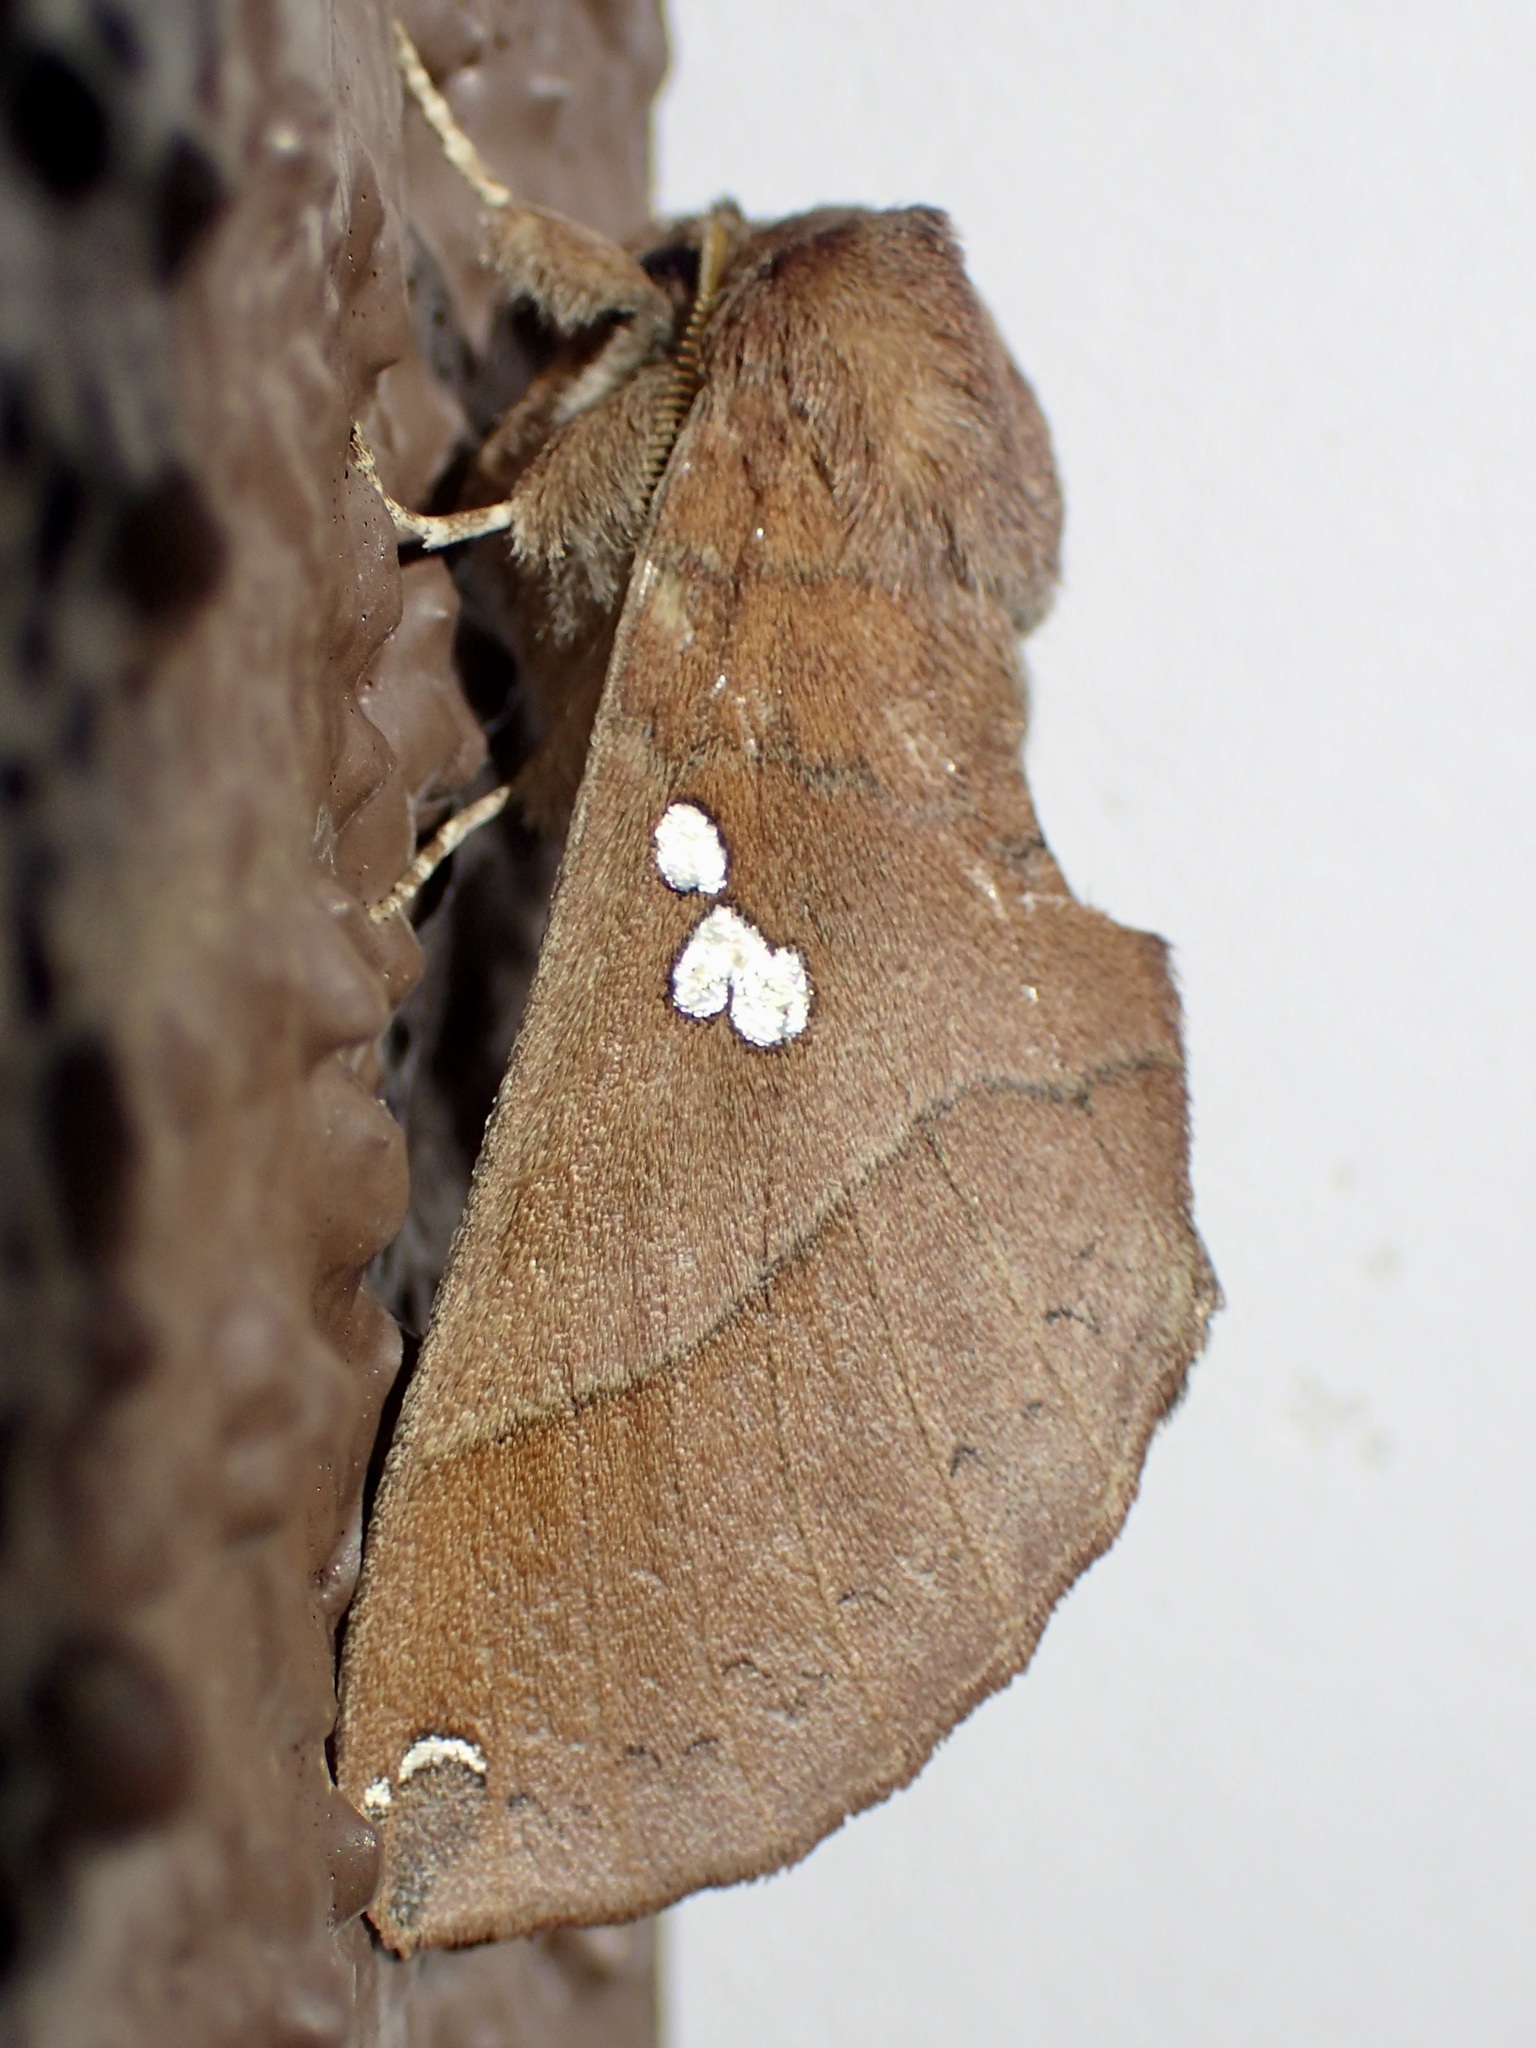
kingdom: Animalia
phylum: Arthropoda
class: Insecta
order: Lepidoptera
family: Notodontidae
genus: Pseudhapigia
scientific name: Pseudhapigia brunnea
